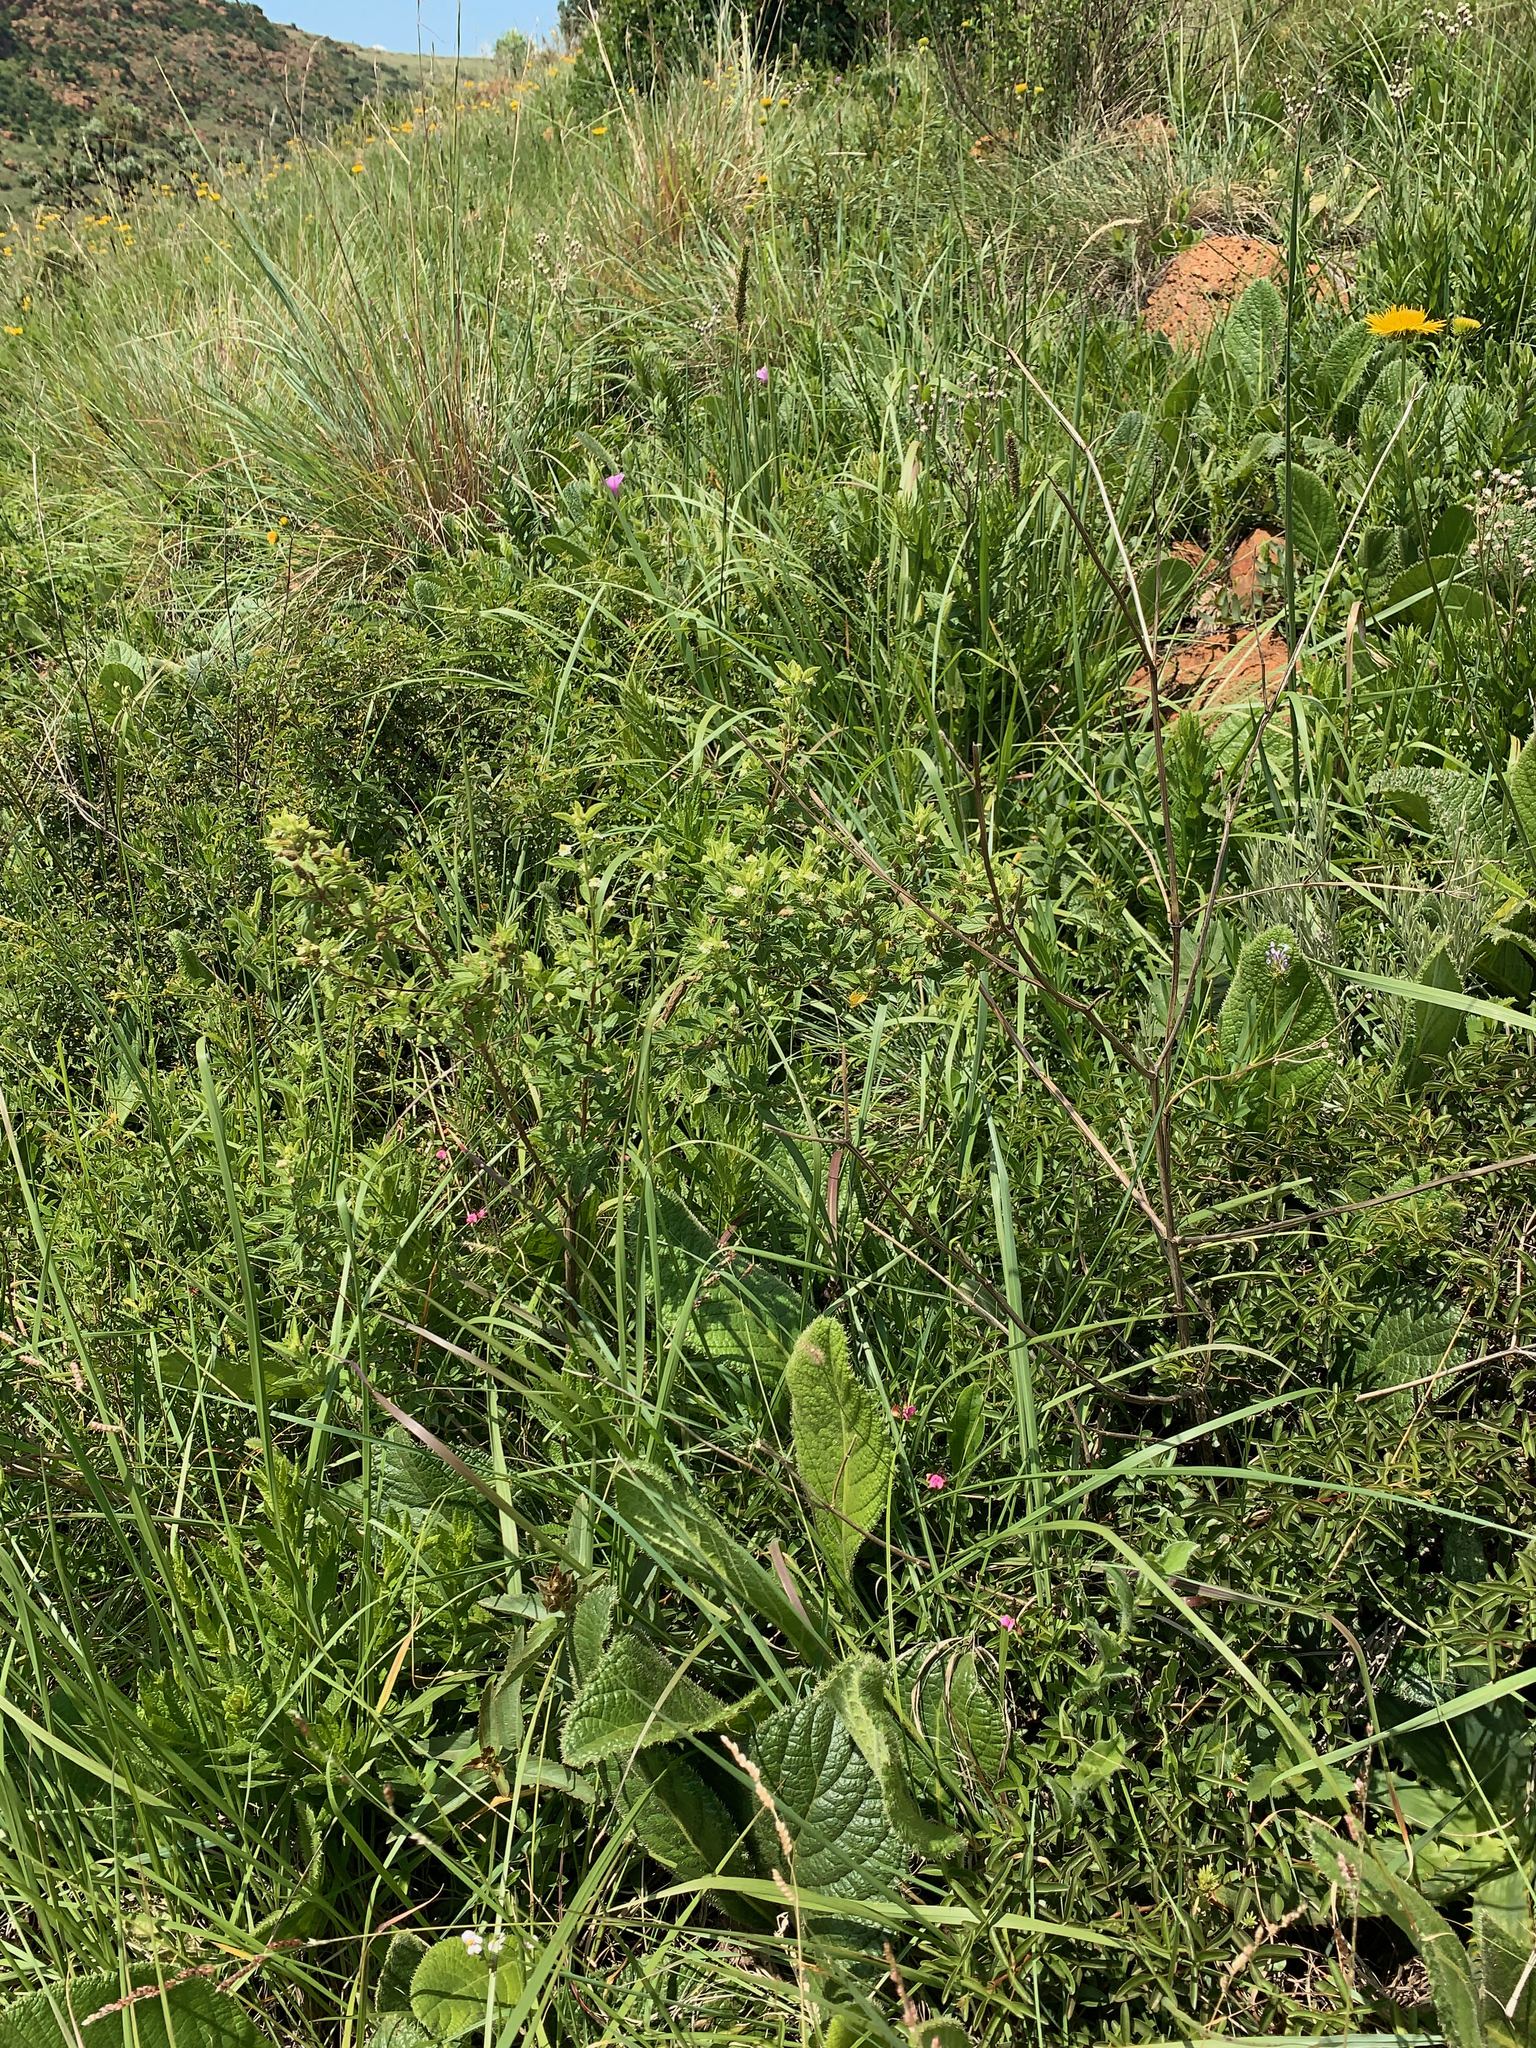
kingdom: Plantae
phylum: Tracheophyta
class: Magnoliopsida
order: Lamiales
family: Verbenaceae
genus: Lippia
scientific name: Lippia javanica
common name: Lemonbush
